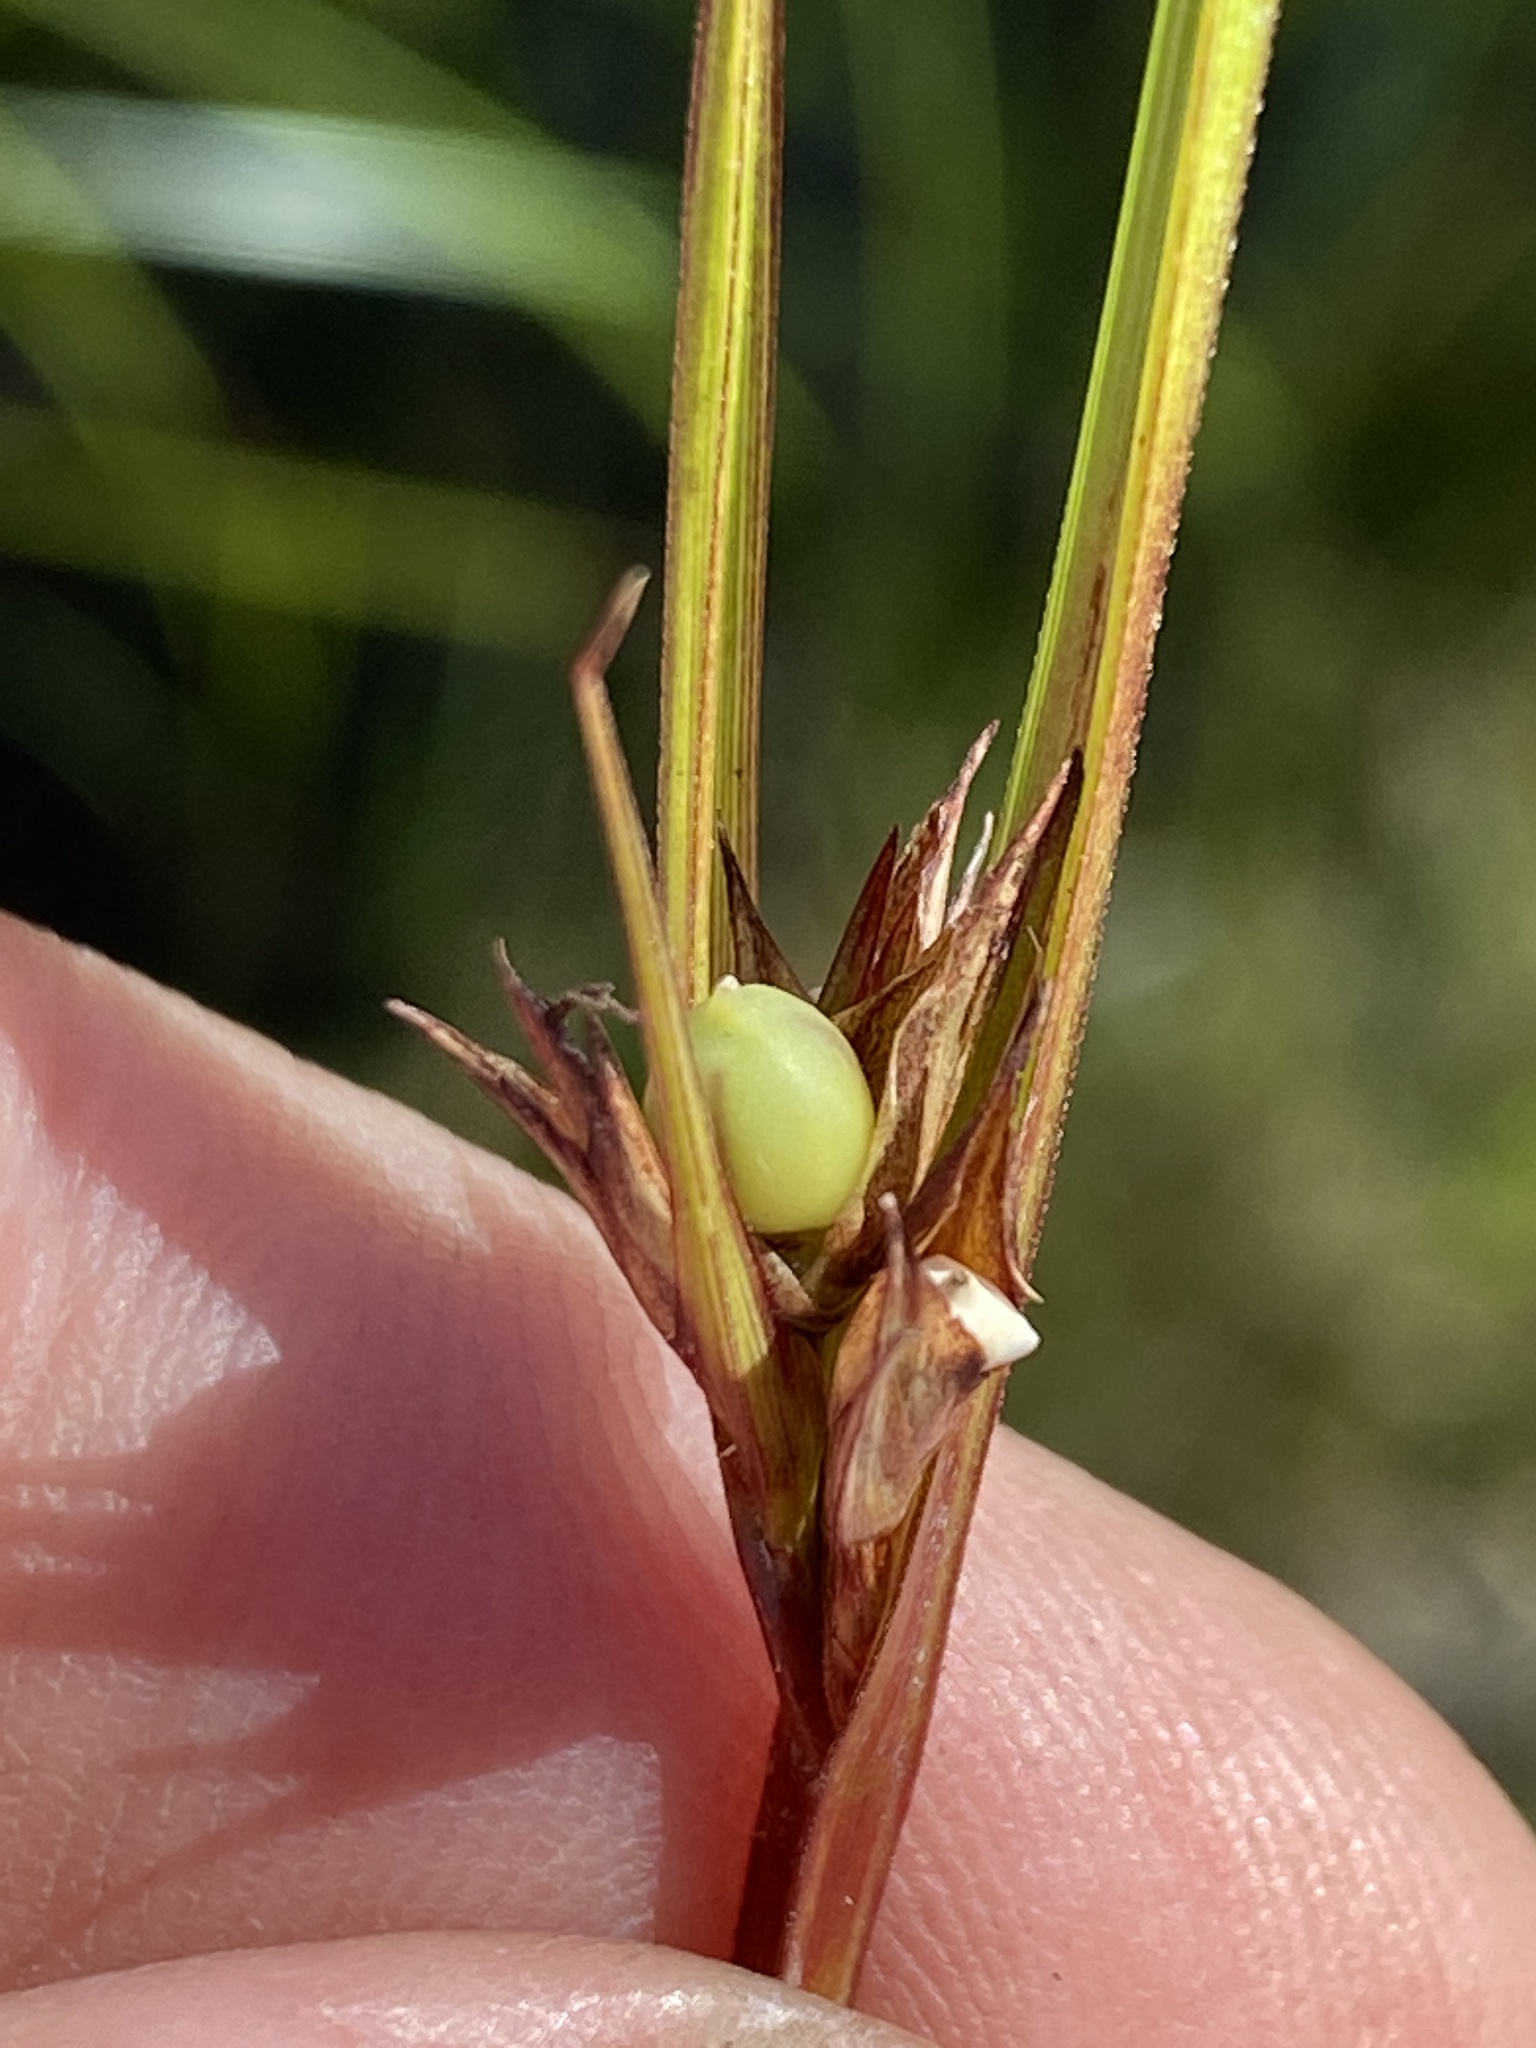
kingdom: Plantae
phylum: Tracheophyta
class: Liliopsida
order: Poales
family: Cyperaceae
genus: Scleria
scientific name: Scleria baldwinii
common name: Baldwin's nutrush
